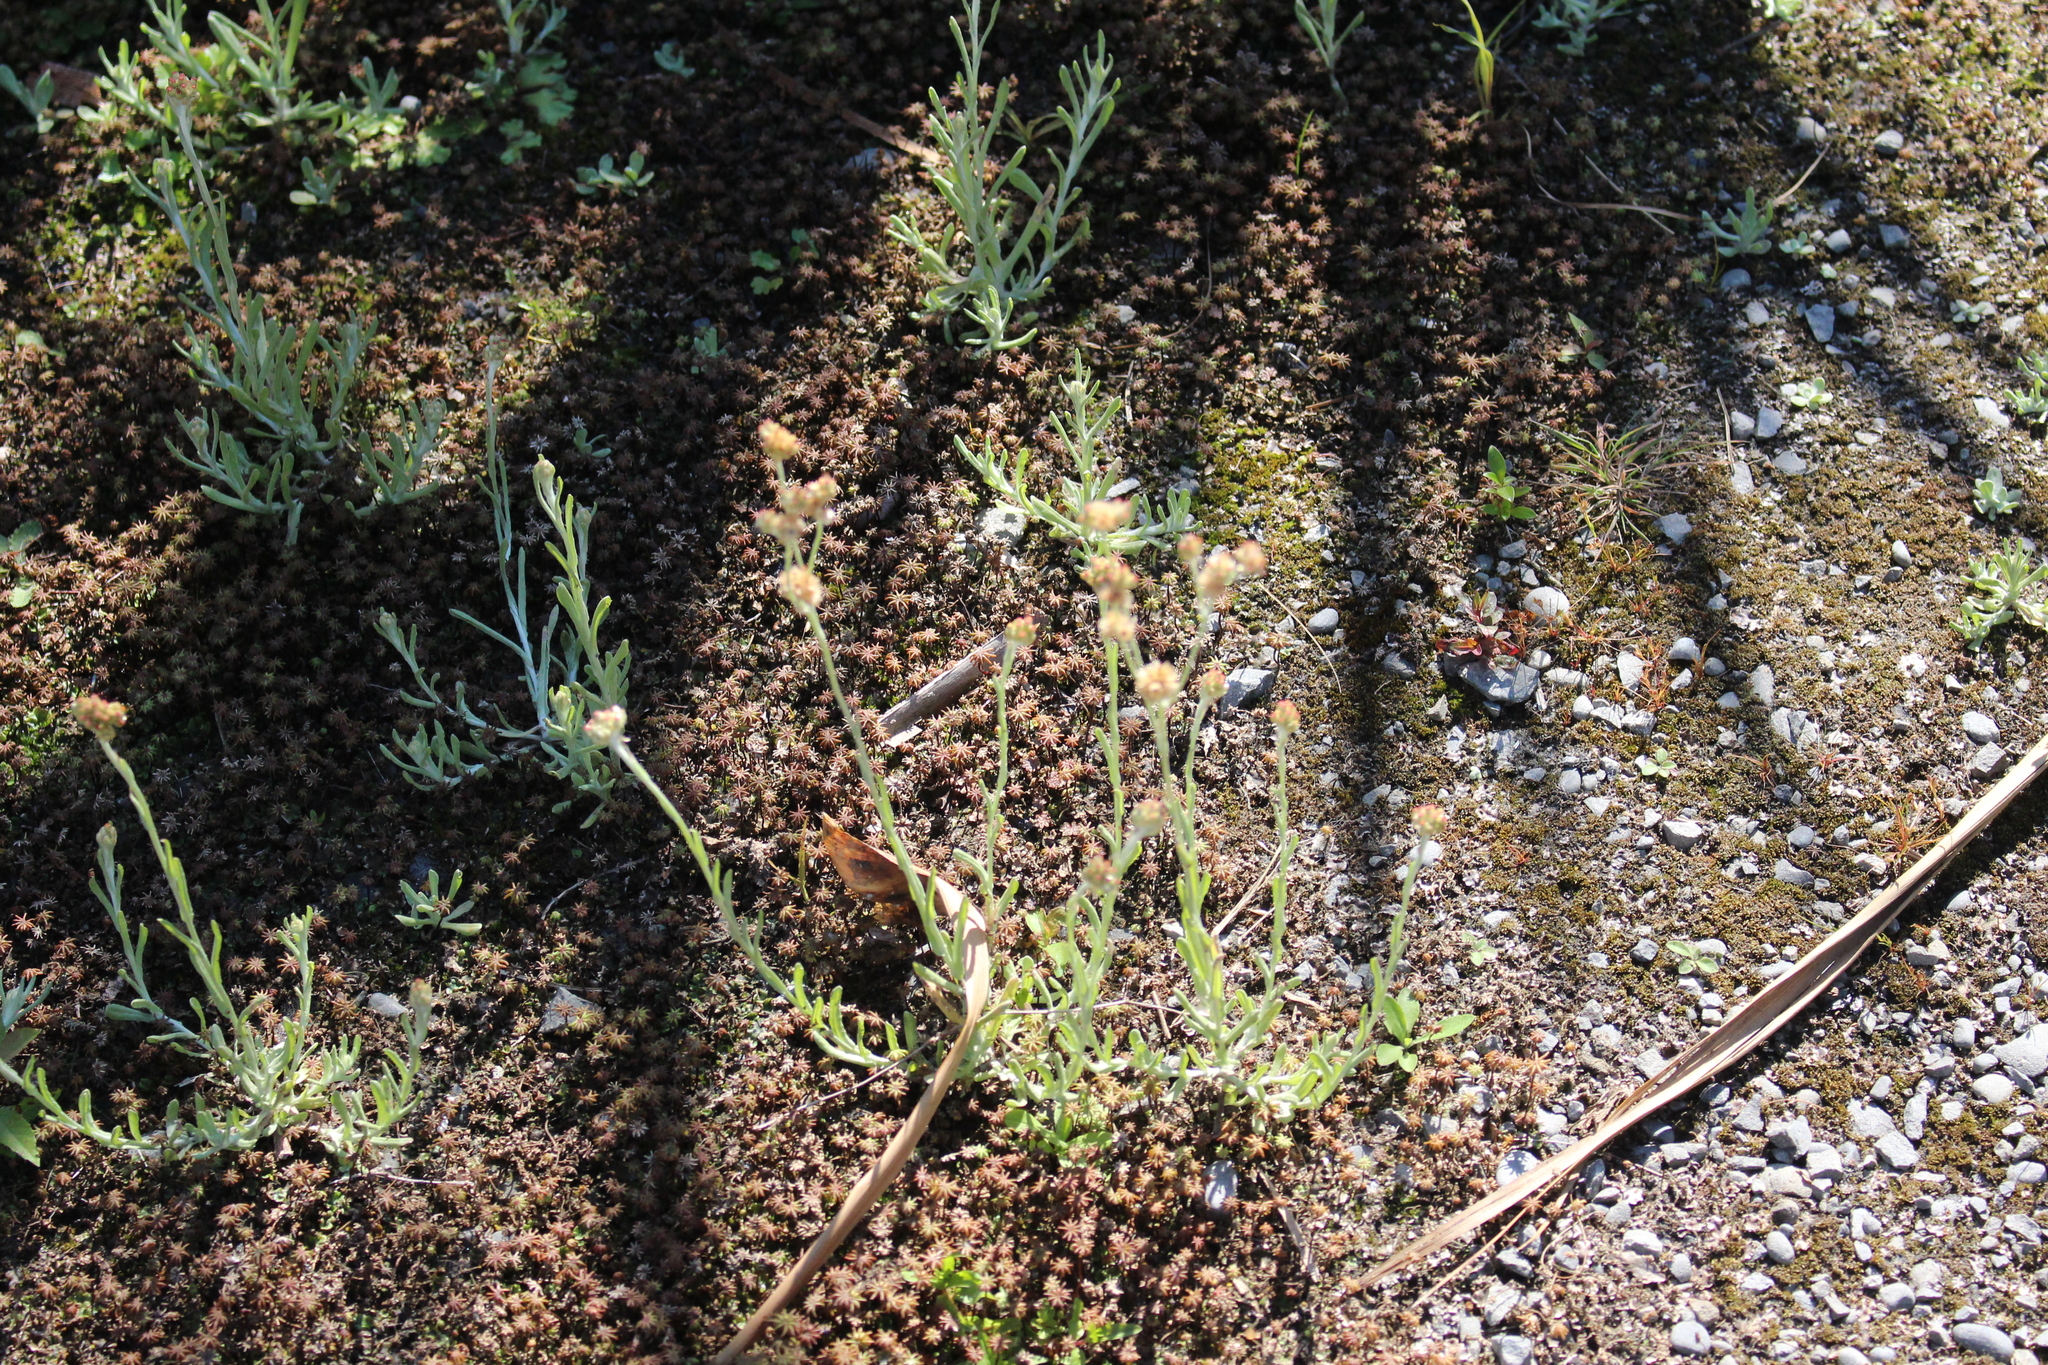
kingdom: Plantae
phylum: Tracheophyta
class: Magnoliopsida
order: Asterales
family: Asteraceae
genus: Helichrysum
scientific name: Helichrysum luteoalbum
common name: Daisy
